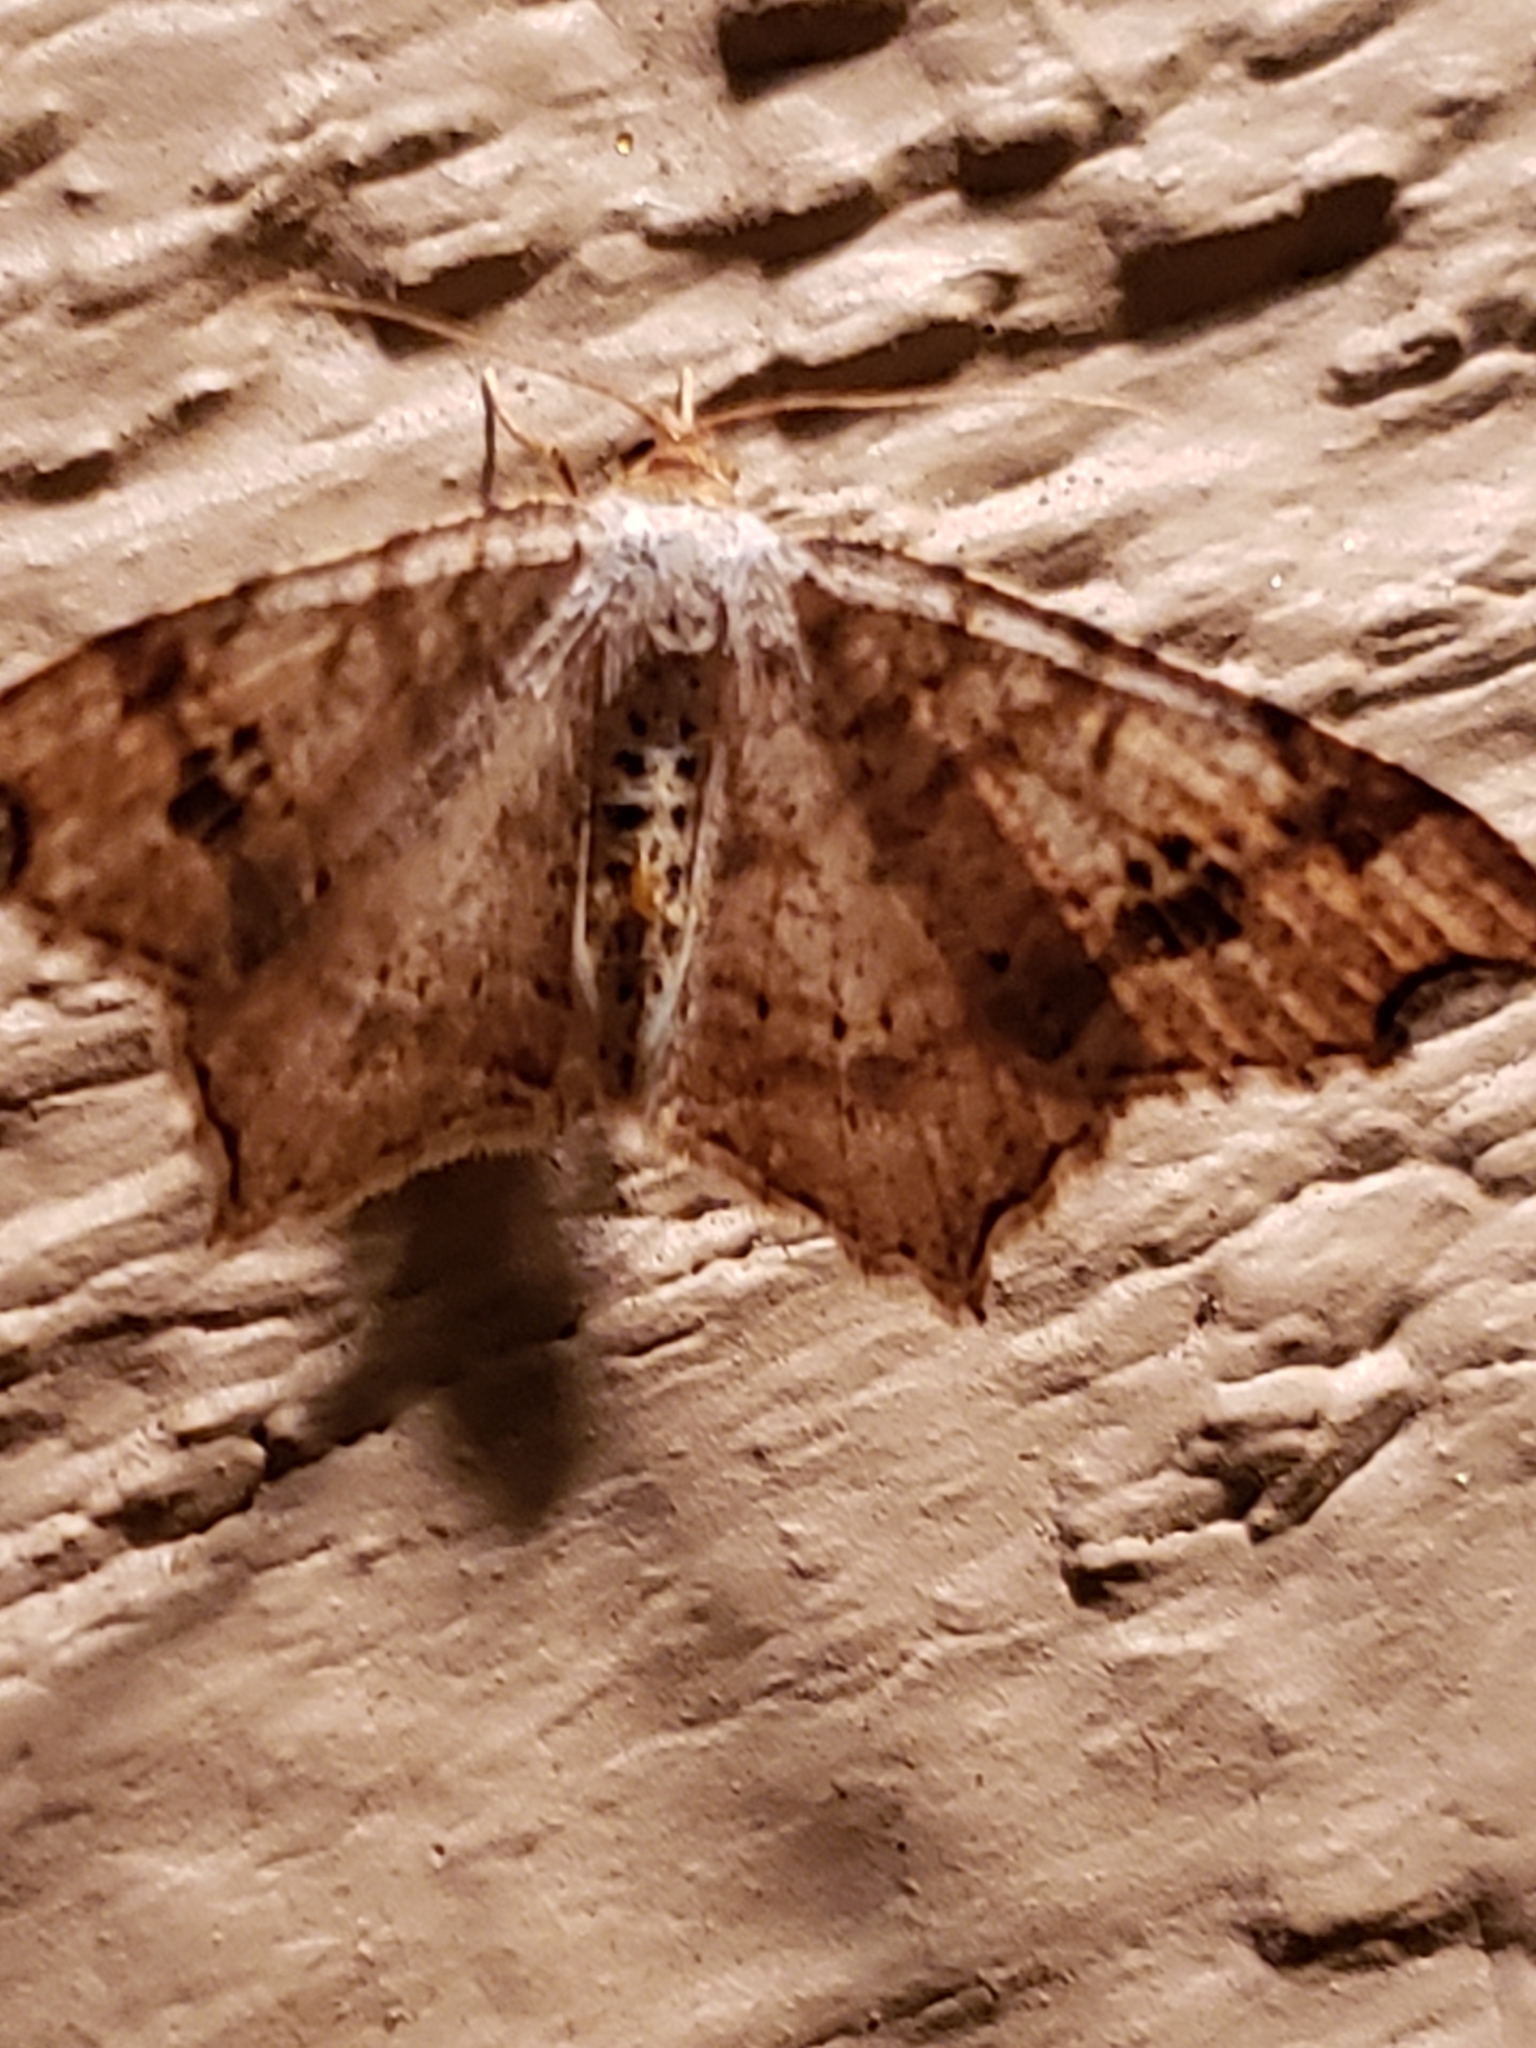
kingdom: Animalia
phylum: Arthropoda
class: Insecta
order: Lepidoptera
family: Geometridae
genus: Macaria
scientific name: Macaria aemulataria
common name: Common angle
